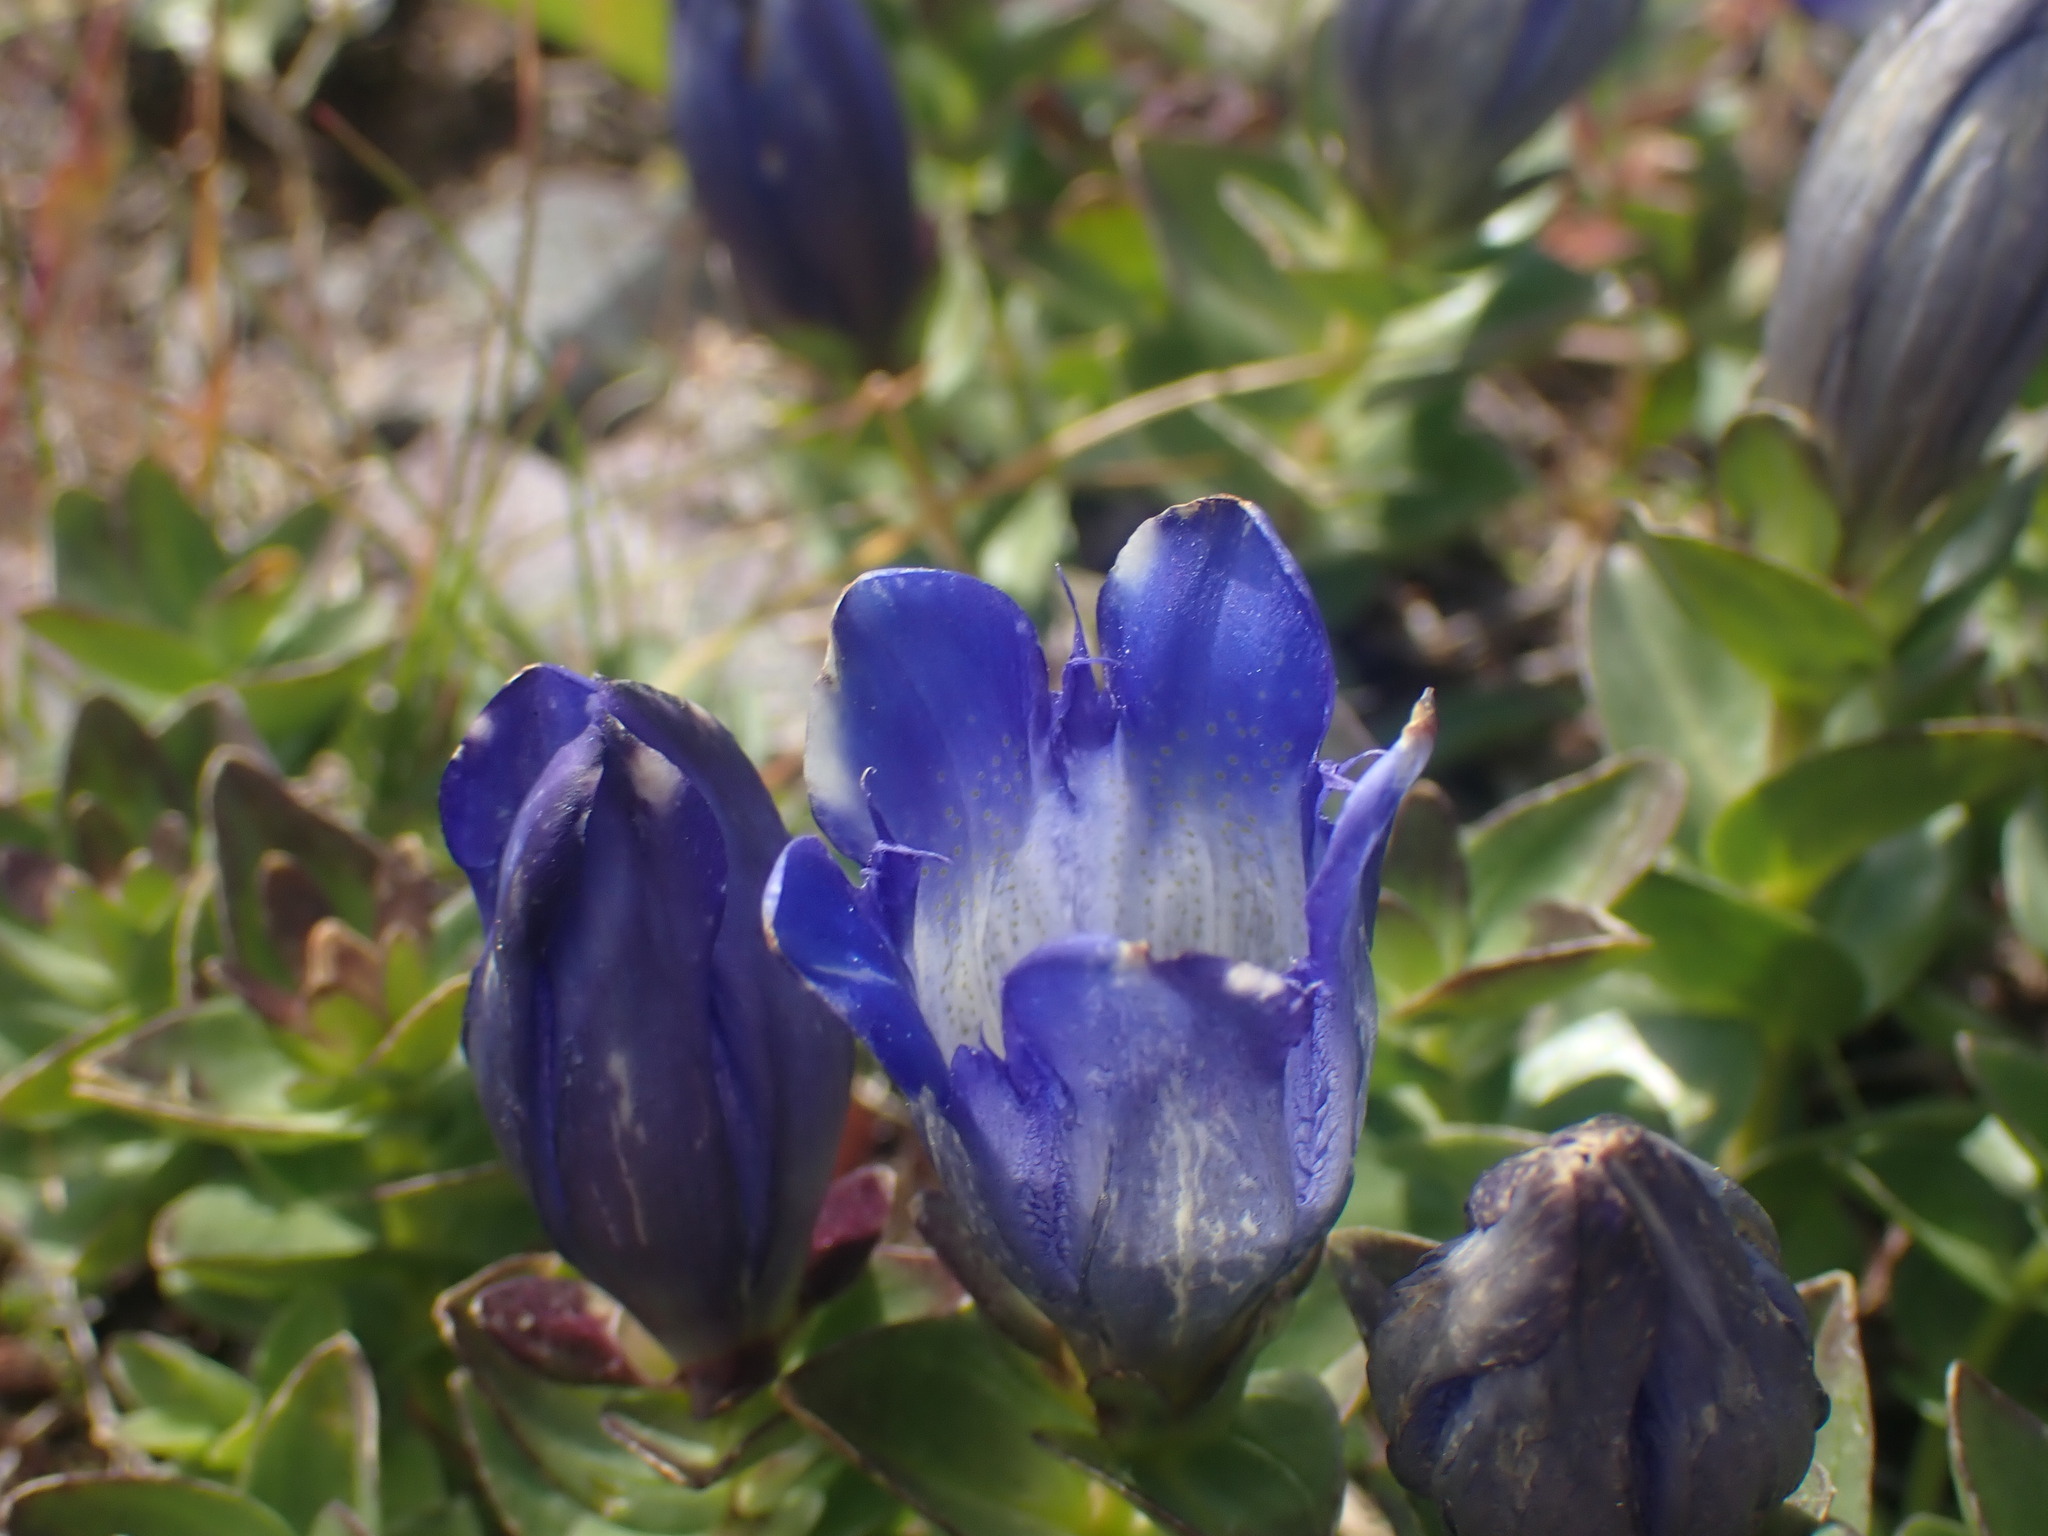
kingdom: Plantae
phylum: Tracheophyta
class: Magnoliopsida
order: Gentianales
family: Gentianaceae
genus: Gentiana
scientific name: Gentiana calycosa
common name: Rainier pleated gentian
